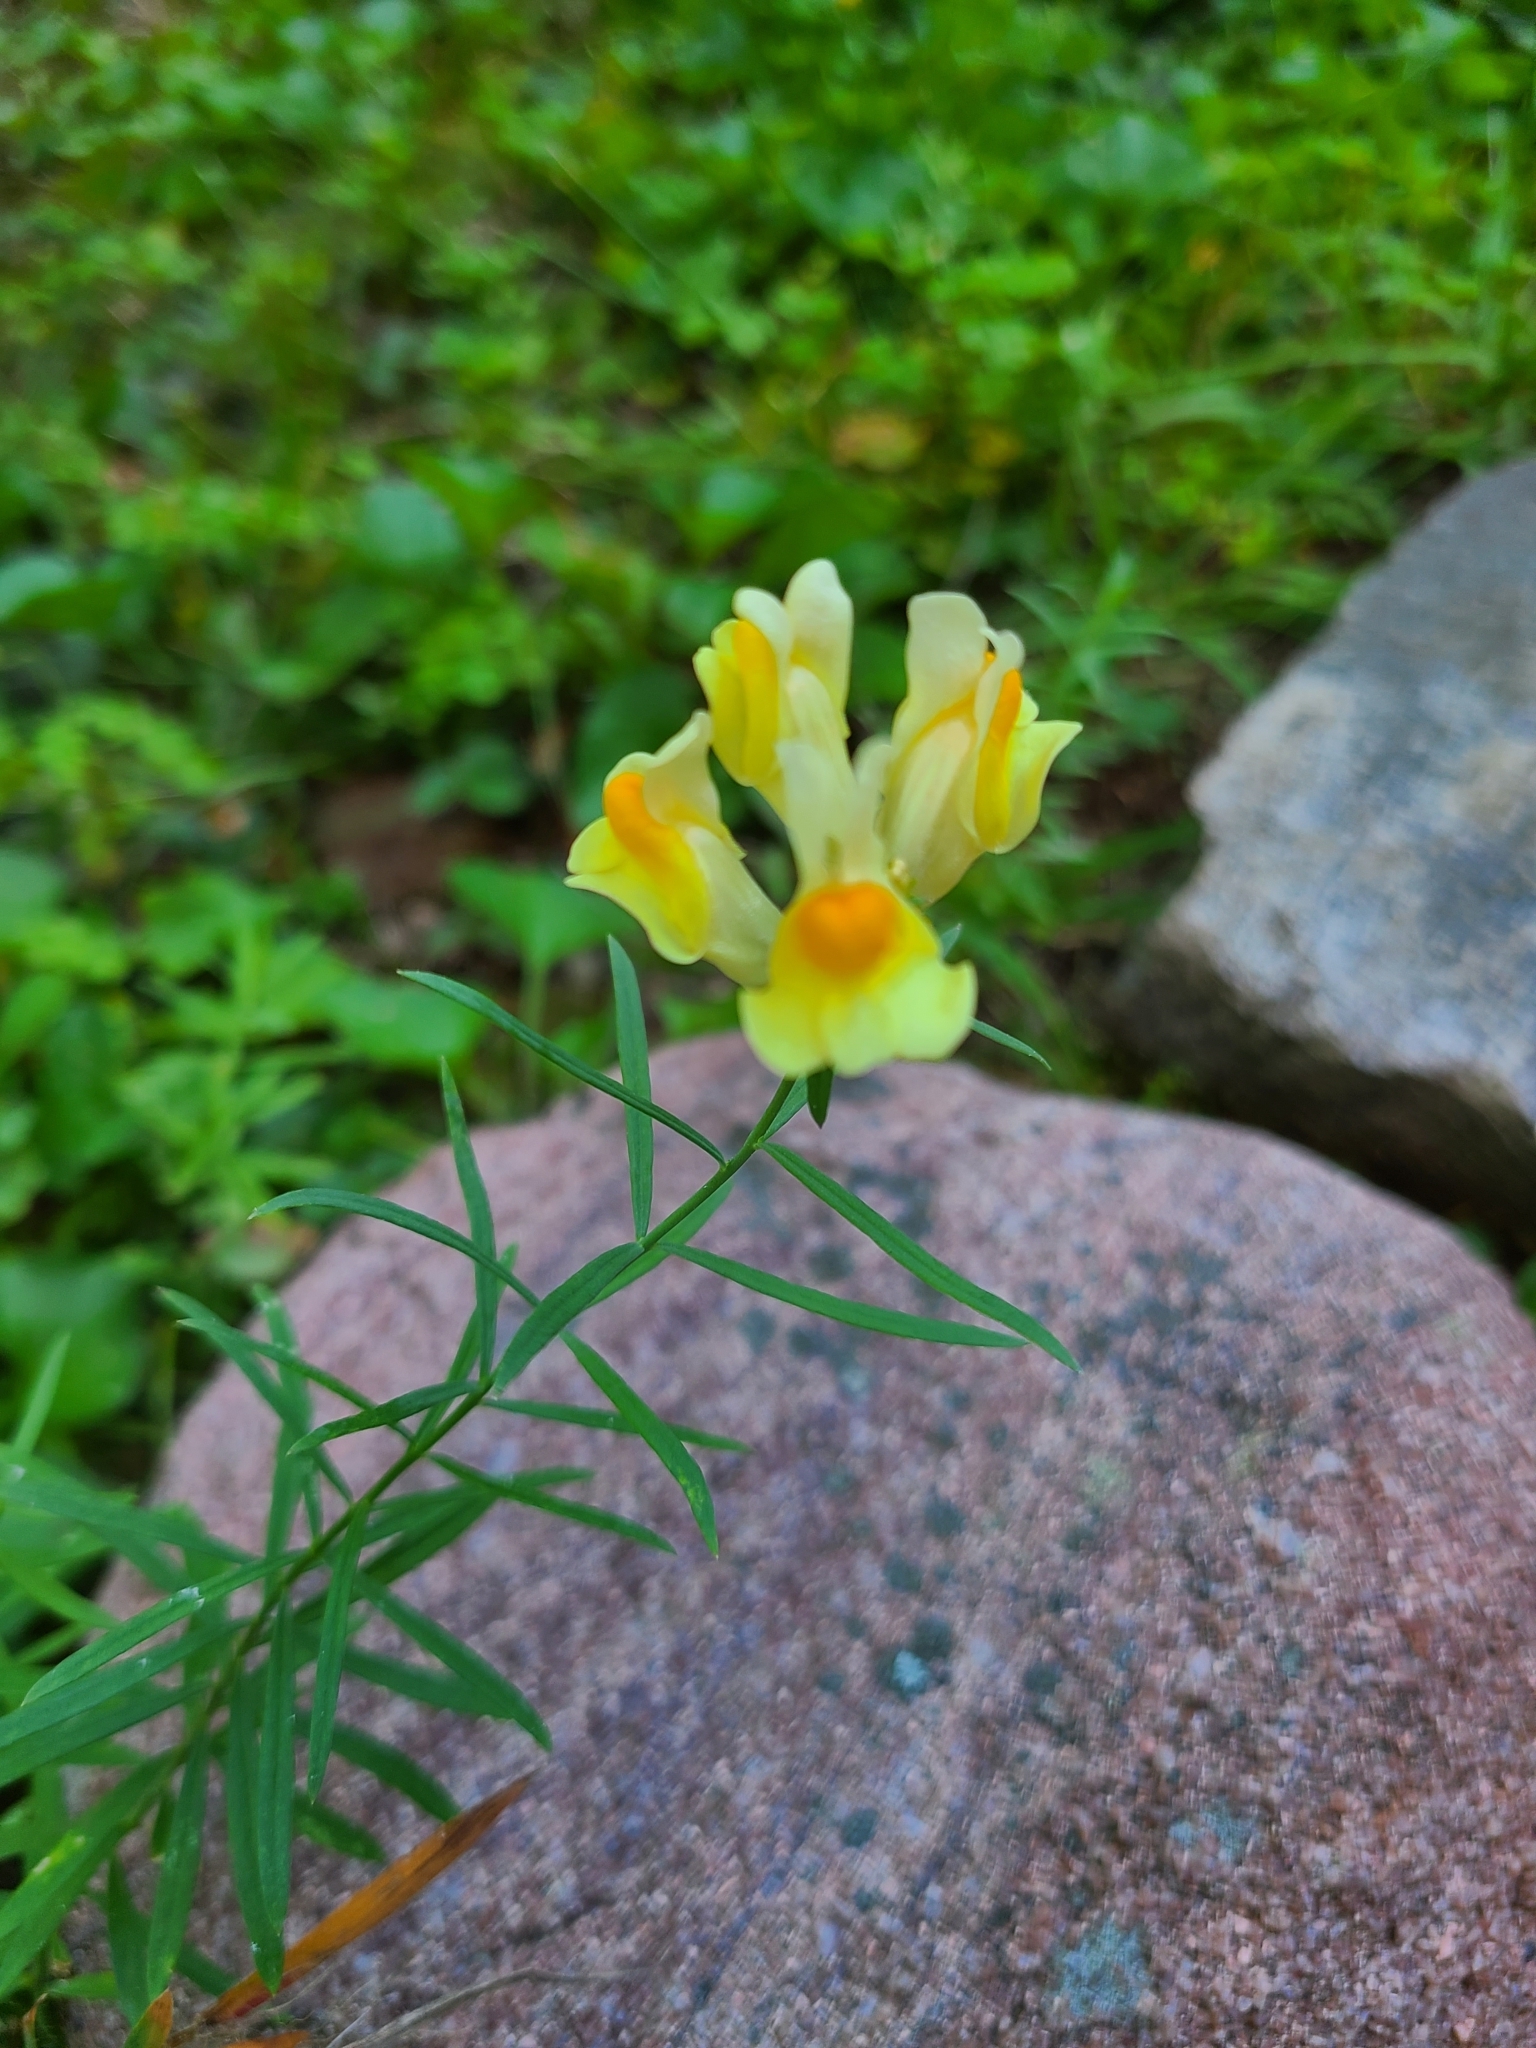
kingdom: Plantae
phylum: Tracheophyta
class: Magnoliopsida
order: Lamiales
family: Plantaginaceae
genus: Linaria
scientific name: Linaria vulgaris
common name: Butter and eggs
